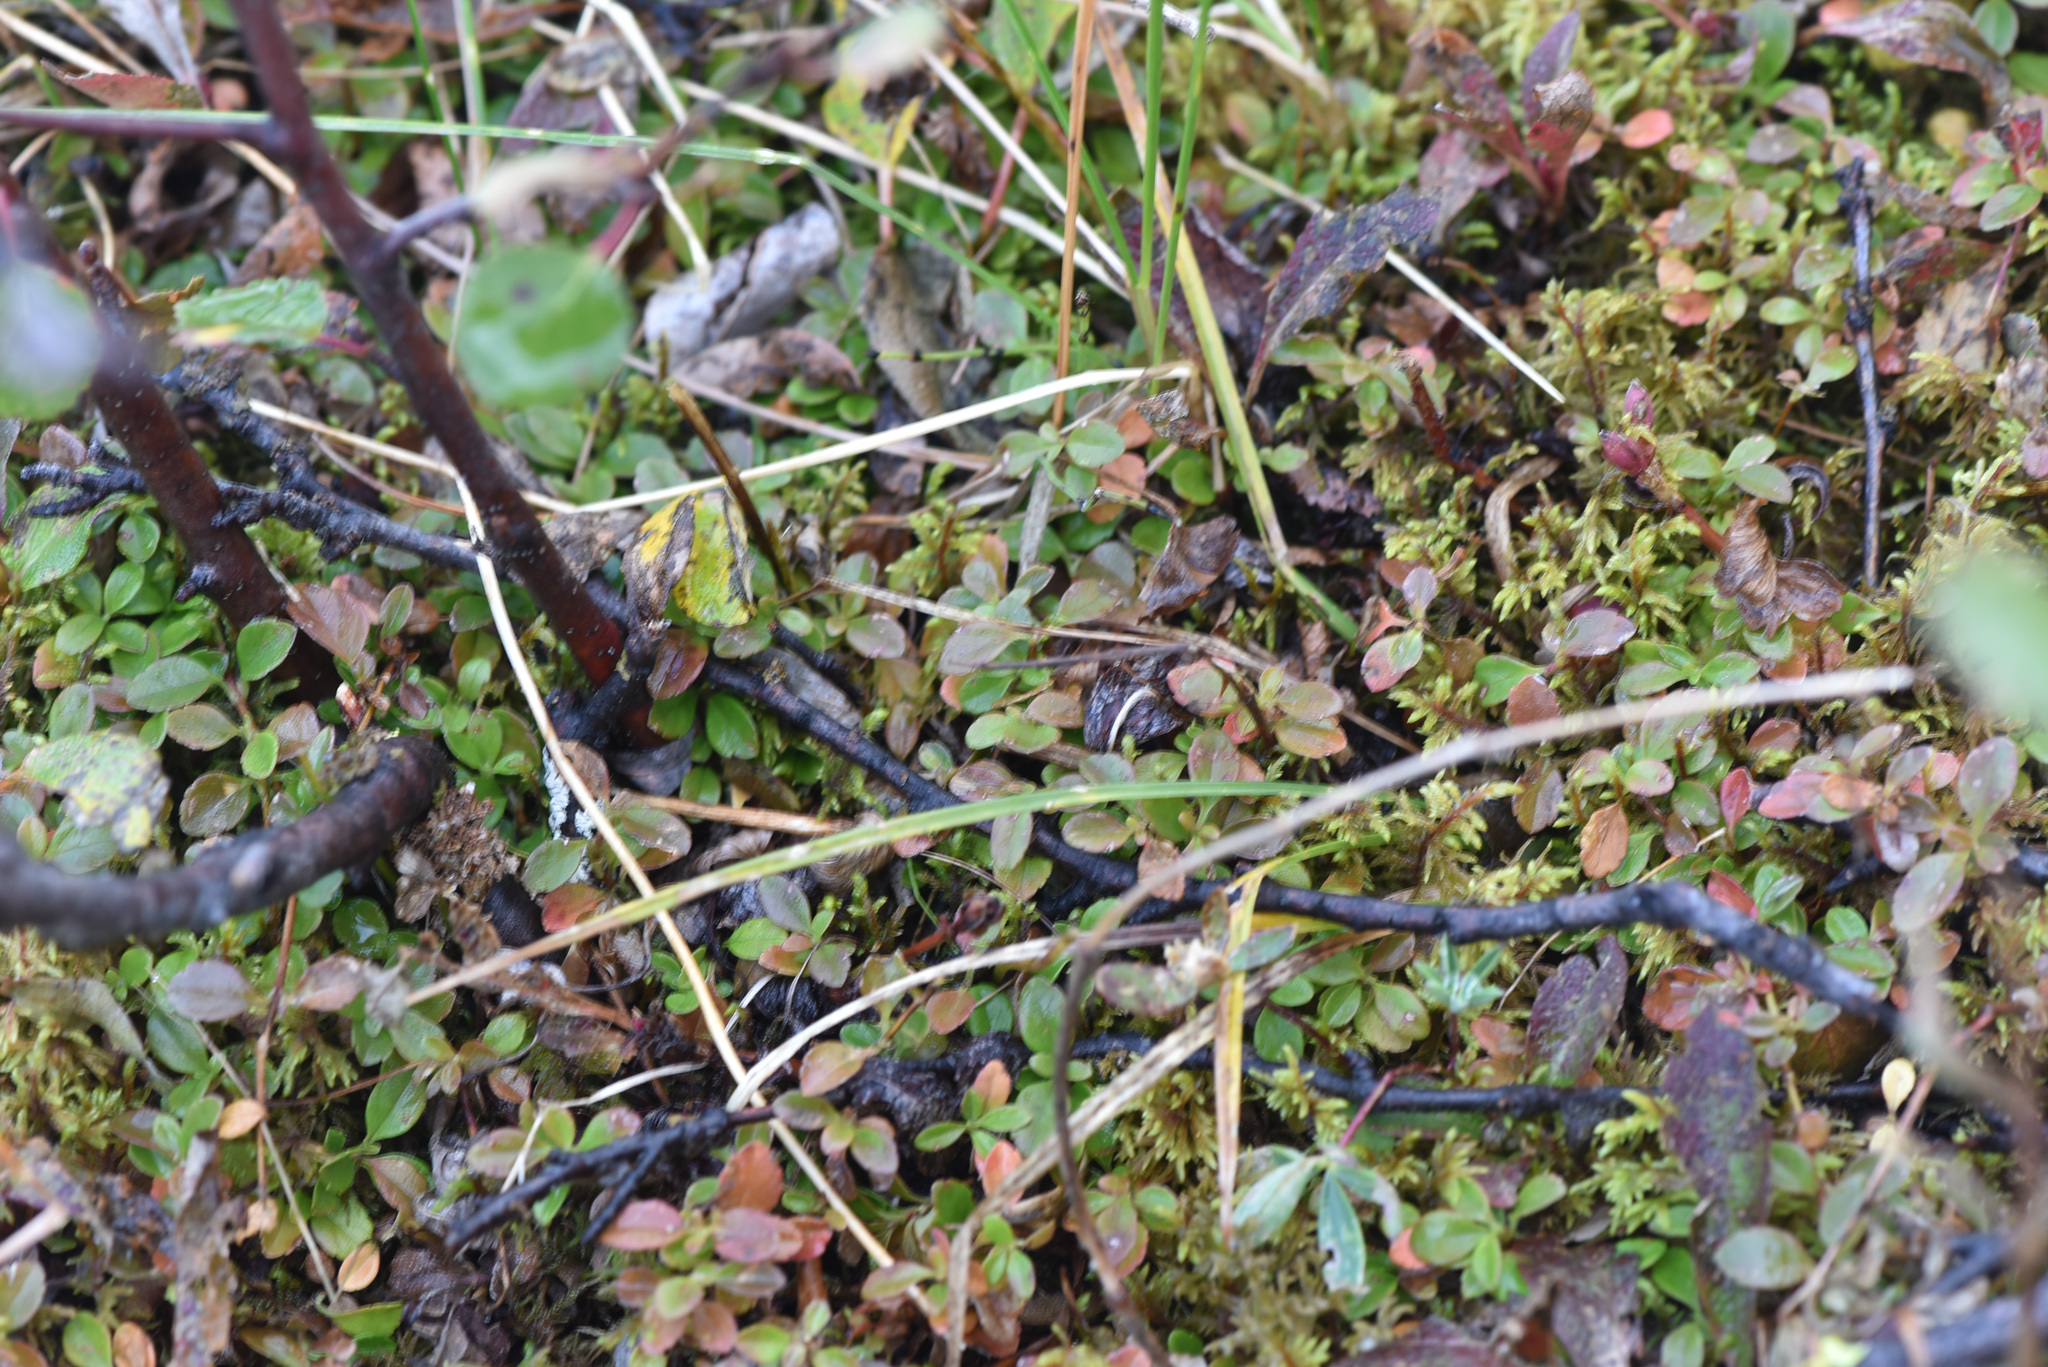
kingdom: Plantae
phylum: Tracheophyta
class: Magnoliopsida
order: Dipsacales
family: Caprifoliaceae
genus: Linnaea
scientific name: Linnaea borealis
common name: Twinflower
